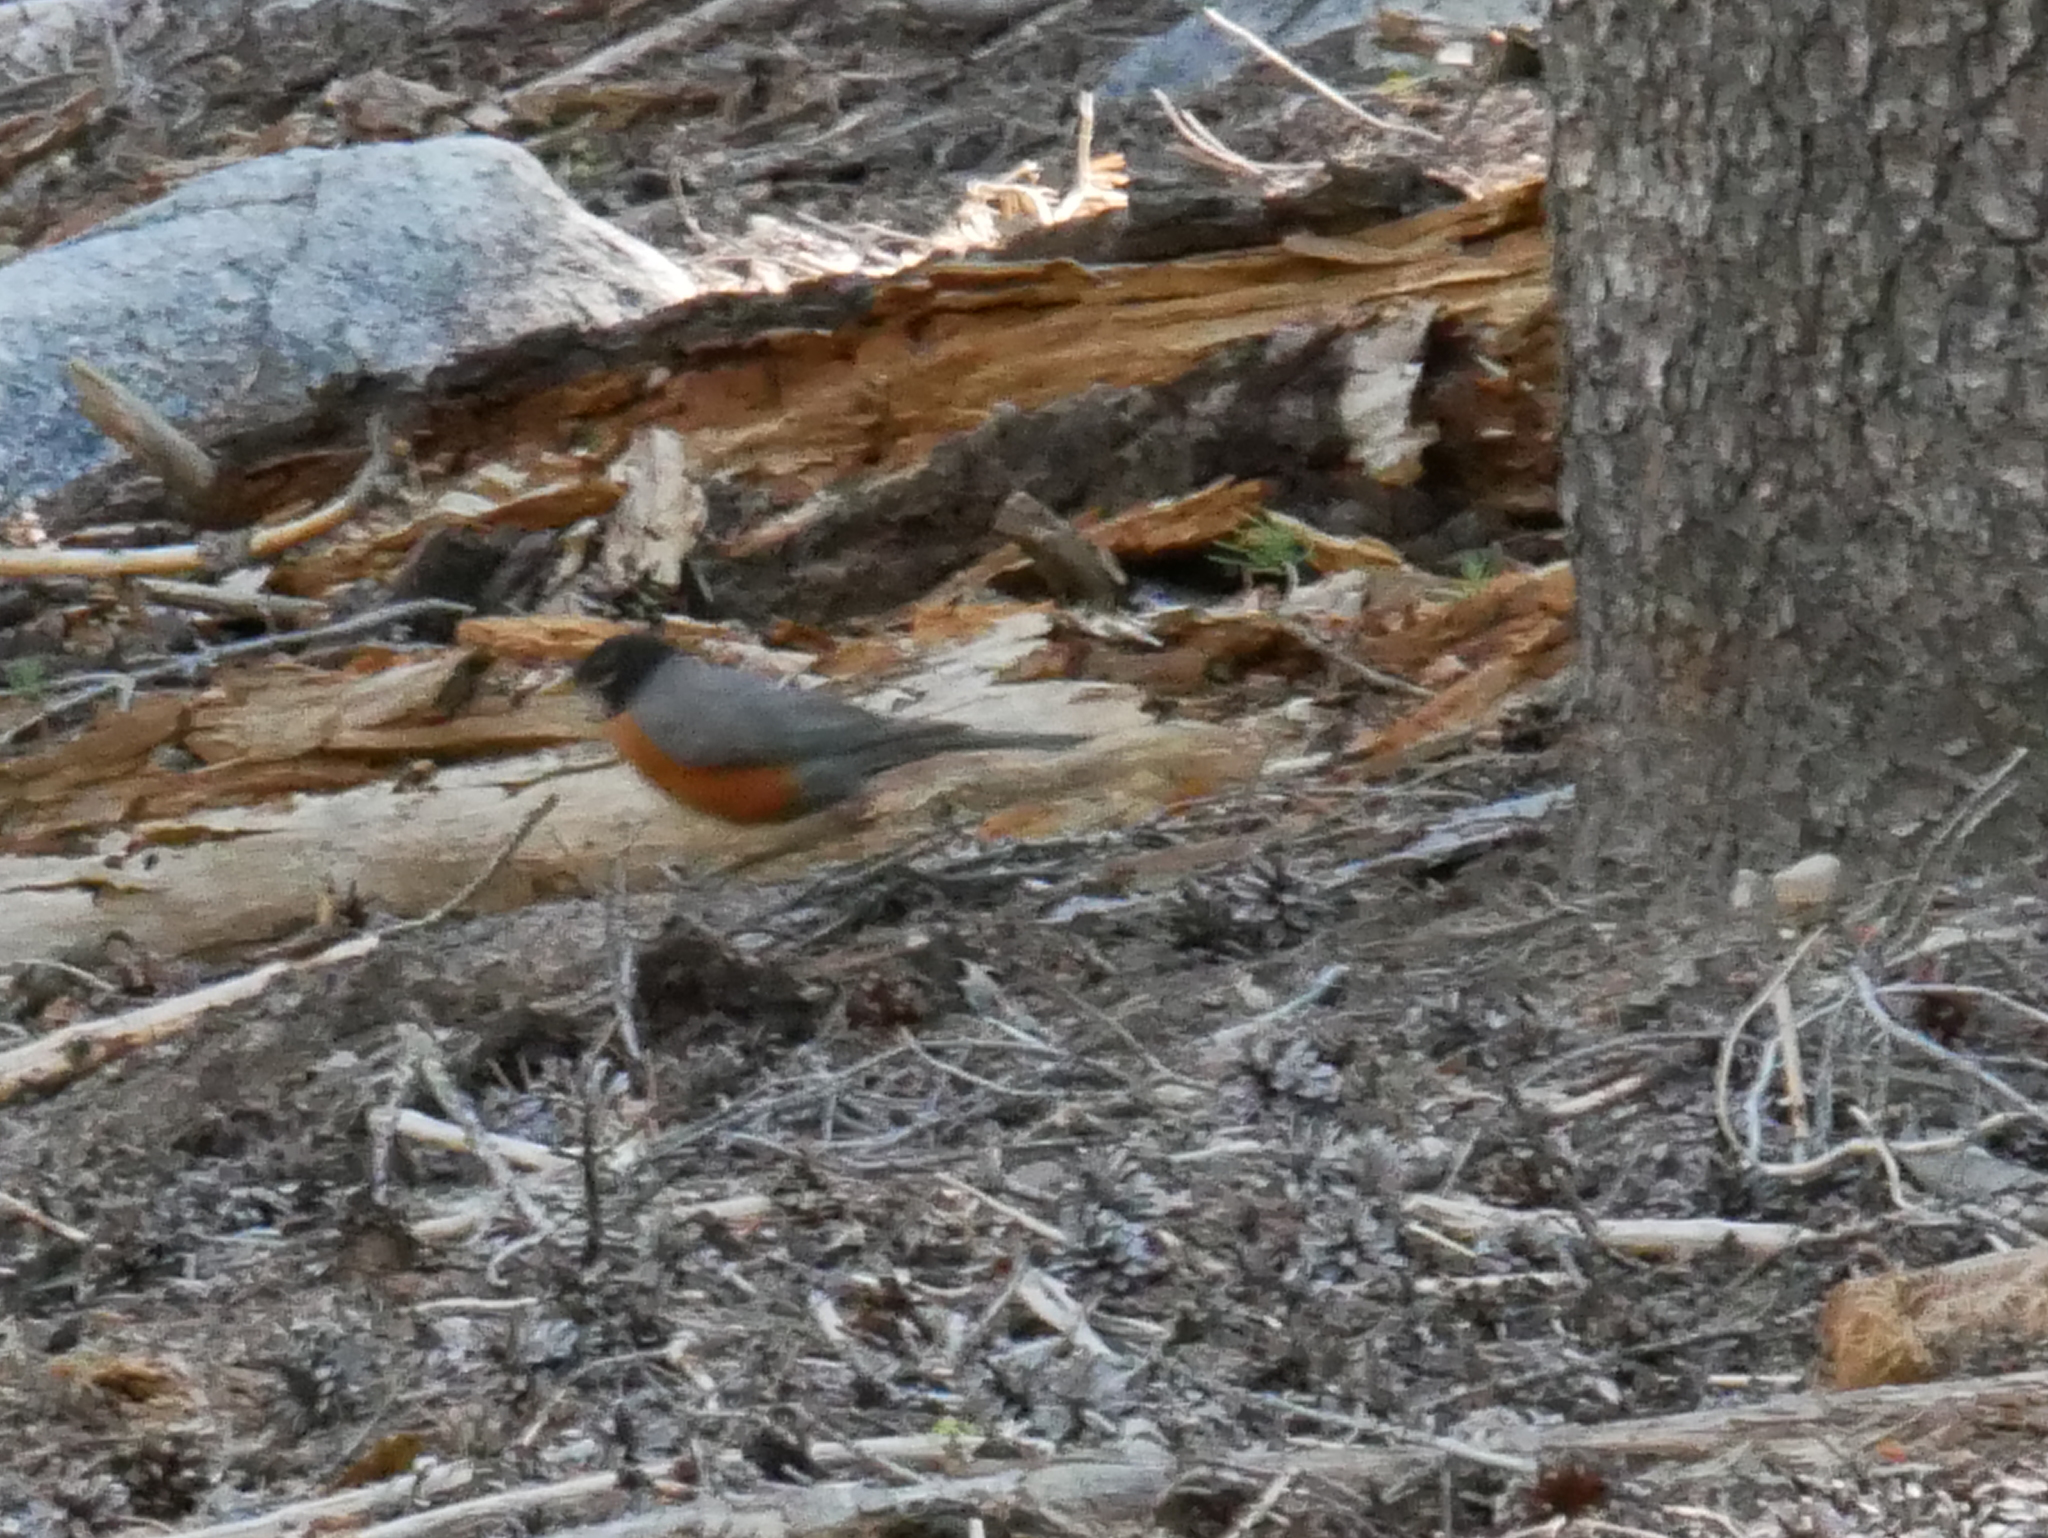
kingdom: Animalia
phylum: Chordata
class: Aves
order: Passeriformes
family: Turdidae
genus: Turdus
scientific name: Turdus migratorius
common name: American robin
